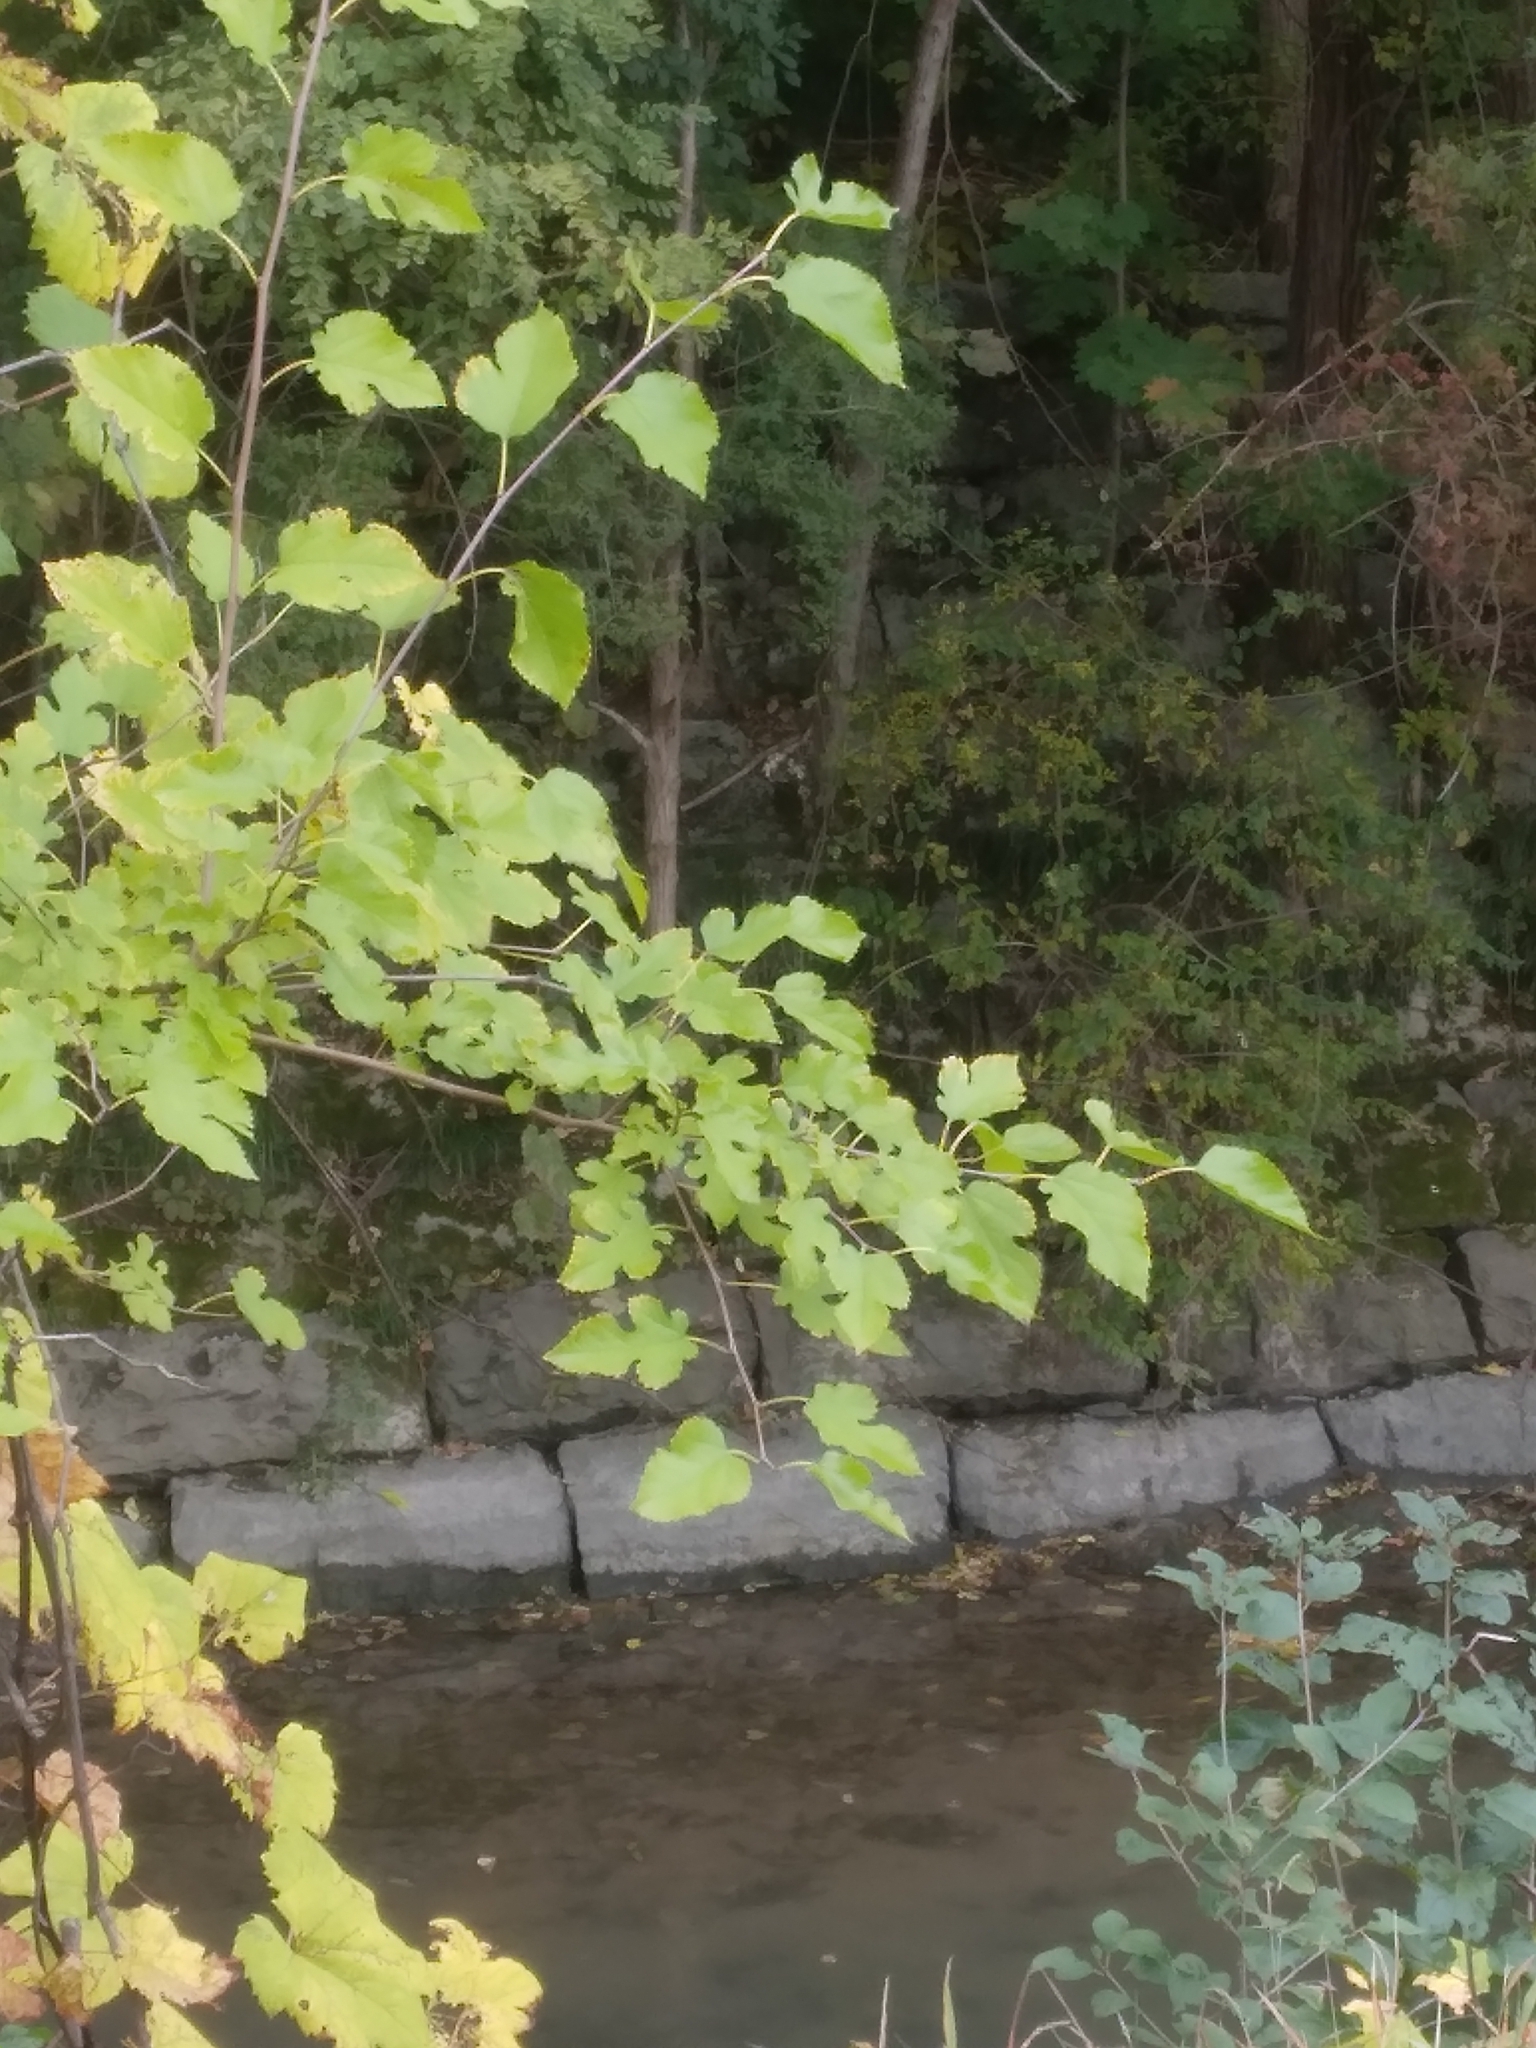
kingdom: Plantae
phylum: Tracheophyta
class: Magnoliopsida
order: Rosales
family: Moraceae
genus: Morus
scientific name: Morus alba
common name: White mulberry
